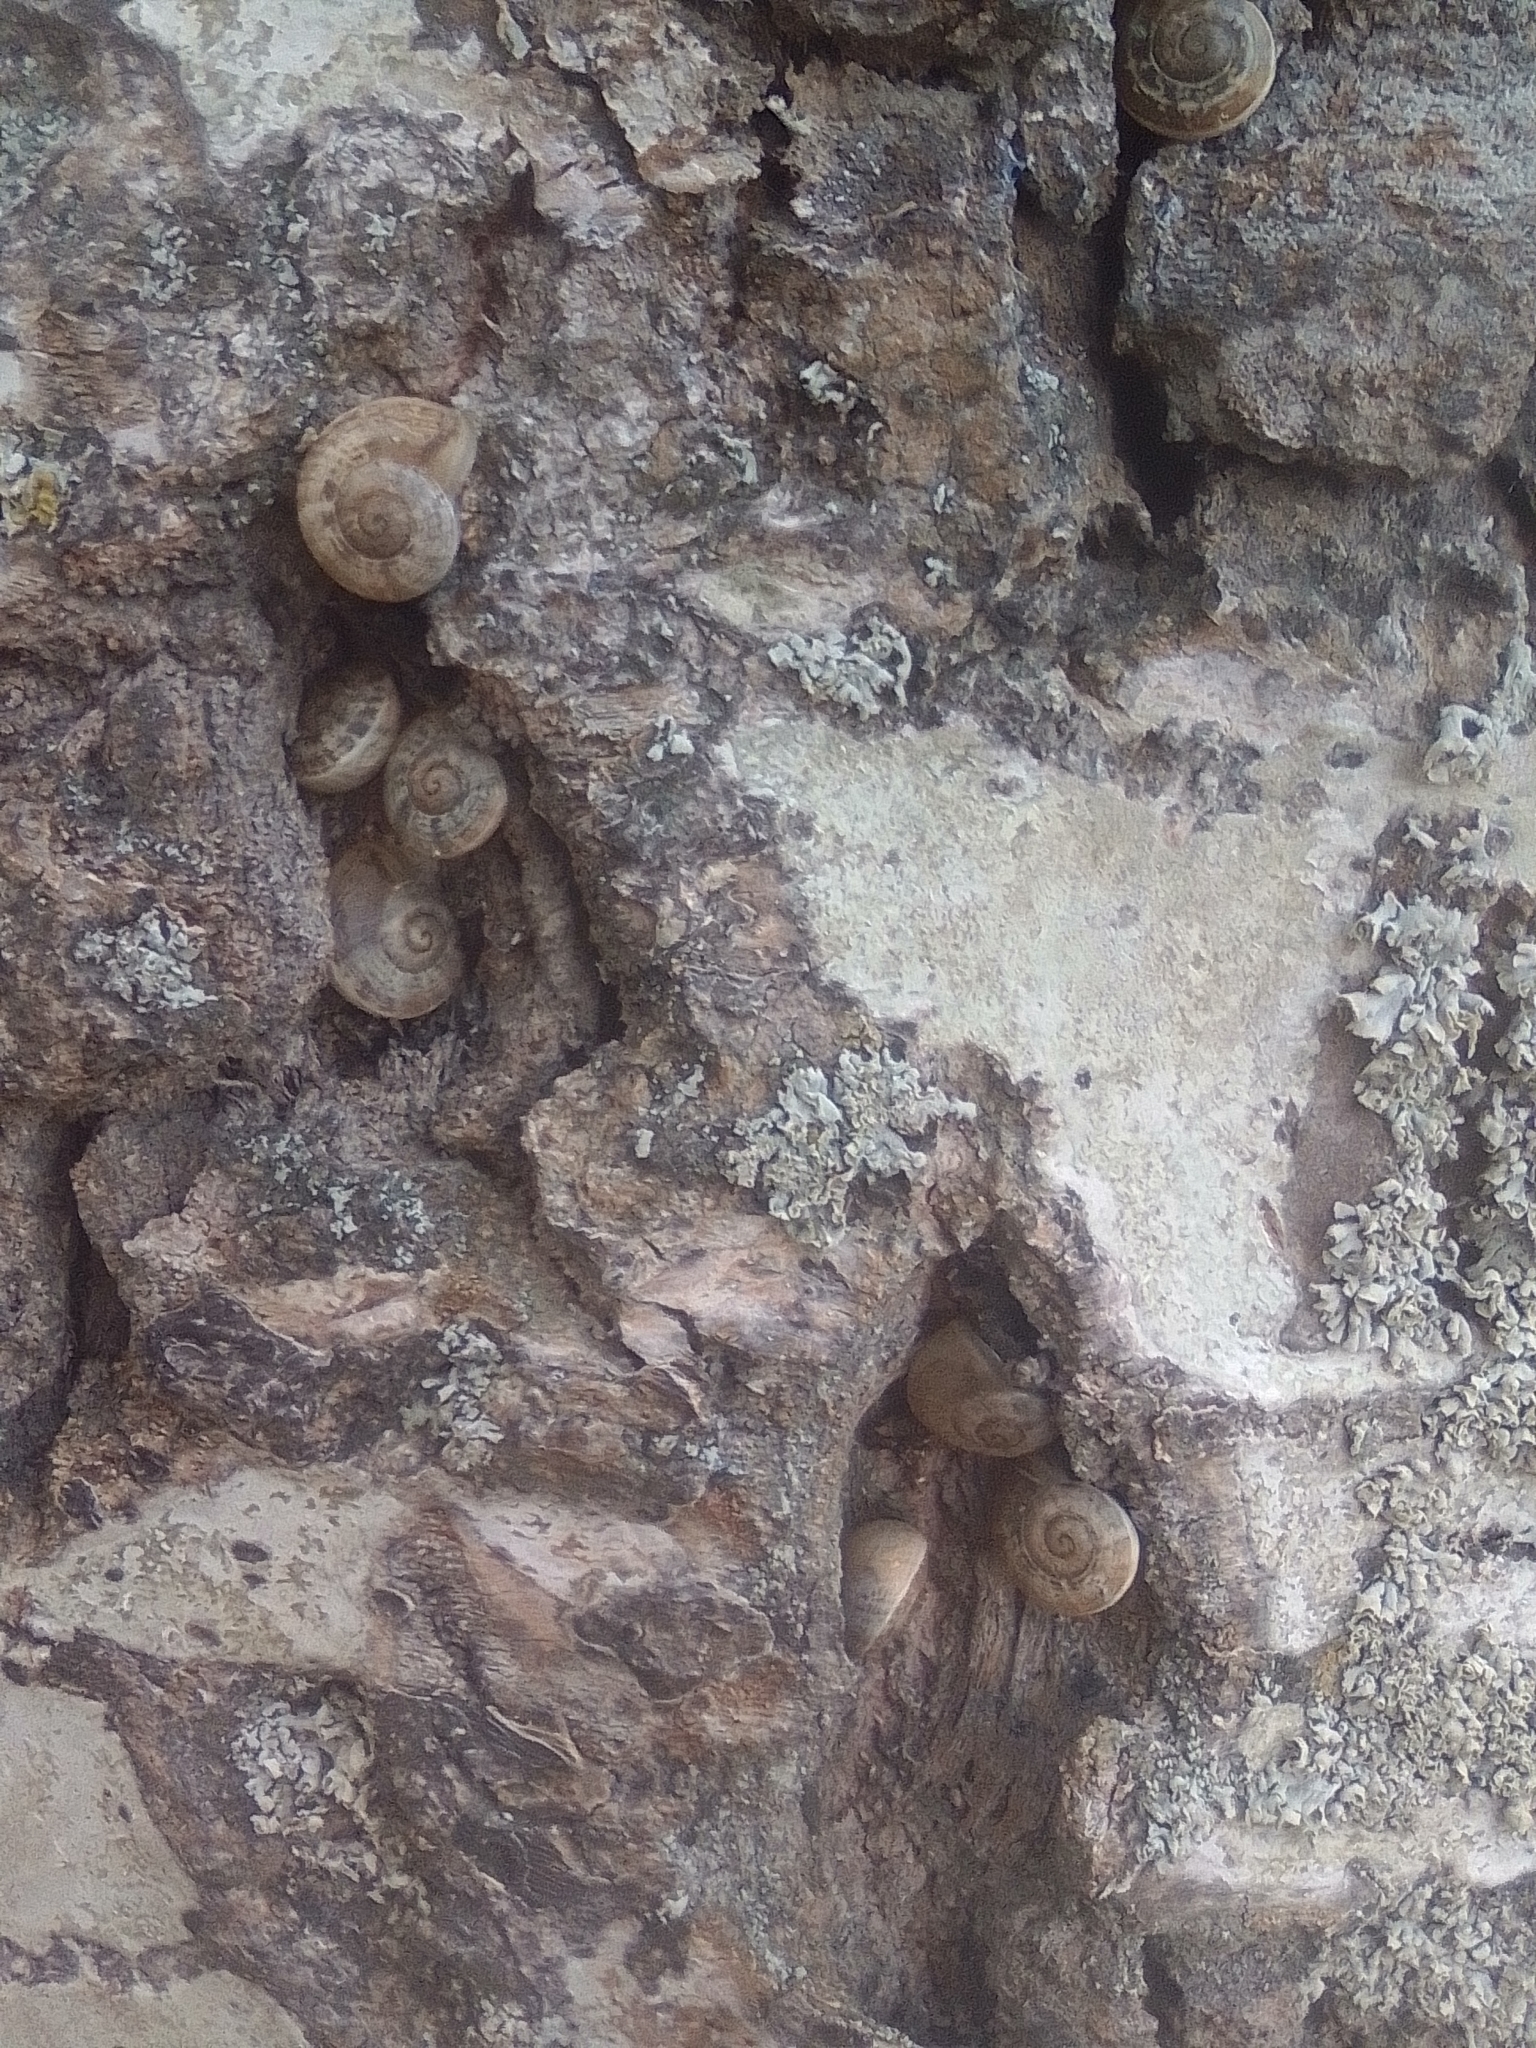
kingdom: Animalia
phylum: Mollusca
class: Gastropoda
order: Stylommatophora
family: Helicidae
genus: Eobania
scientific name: Eobania vermiculata
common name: Chocolateband snail
